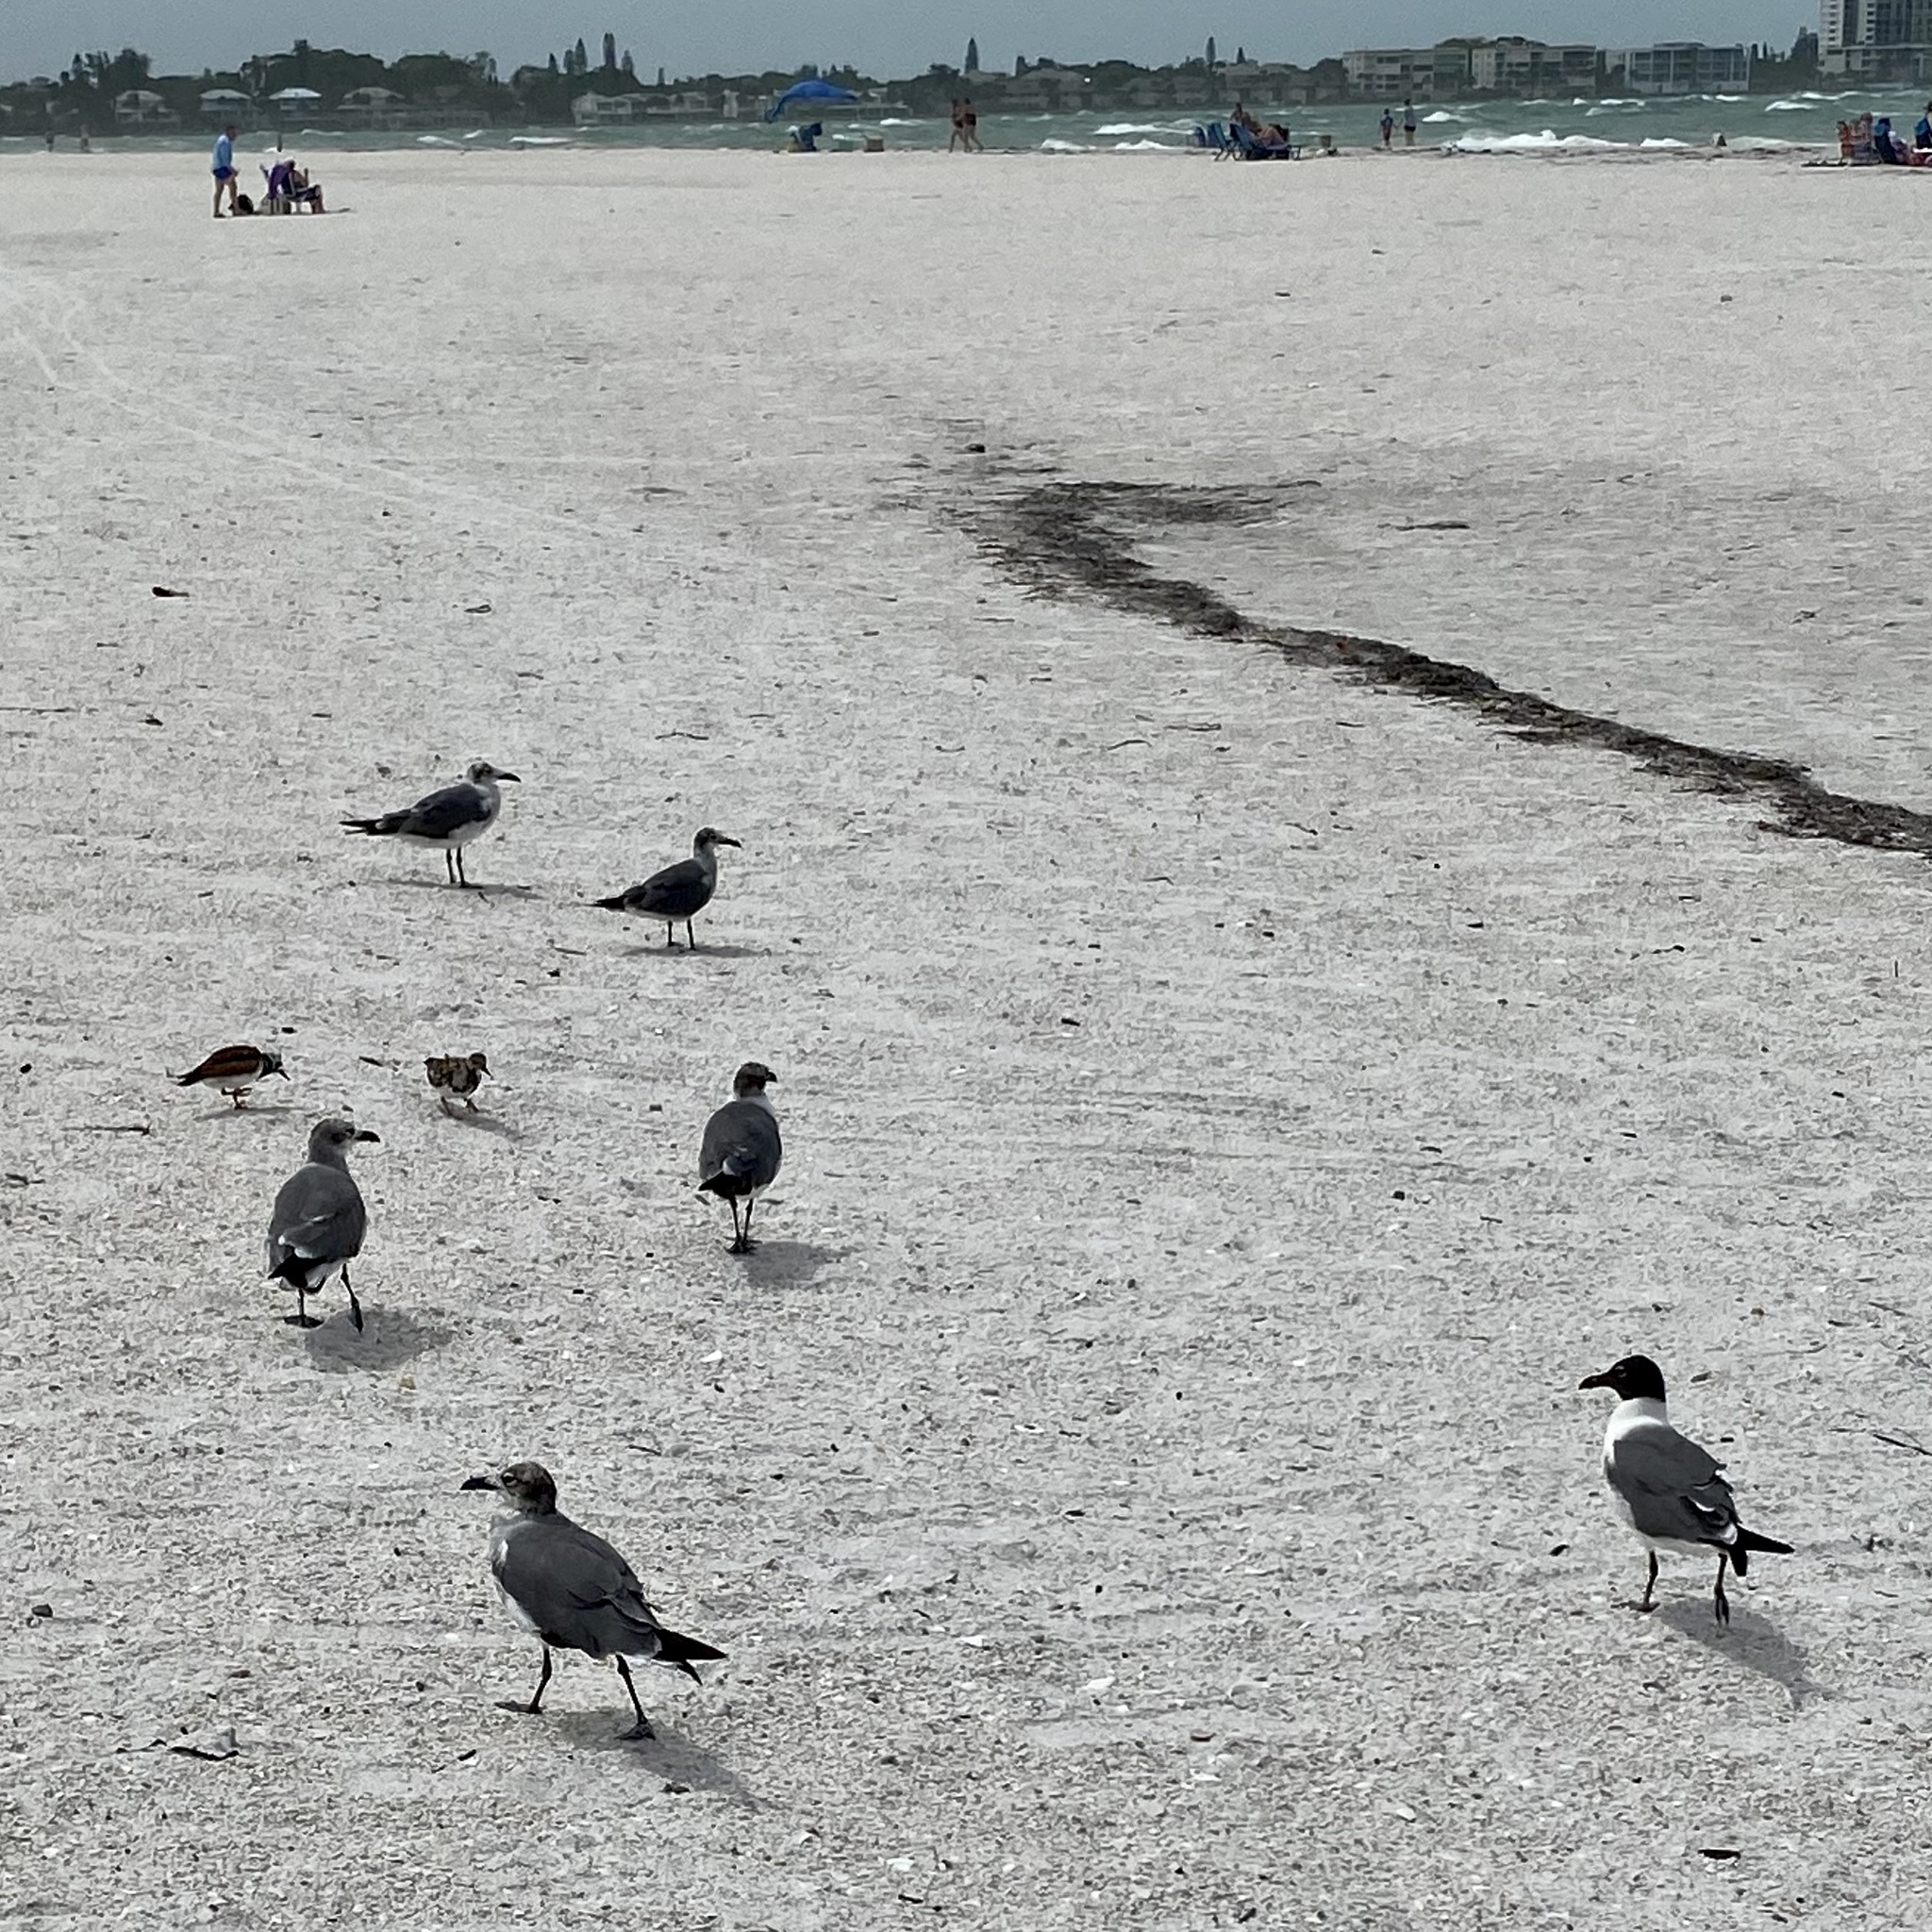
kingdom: Animalia
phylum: Chordata
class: Aves
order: Charadriiformes
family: Laridae
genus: Leucophaeus
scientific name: Leucophaeus atricilla
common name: Laughing gull
